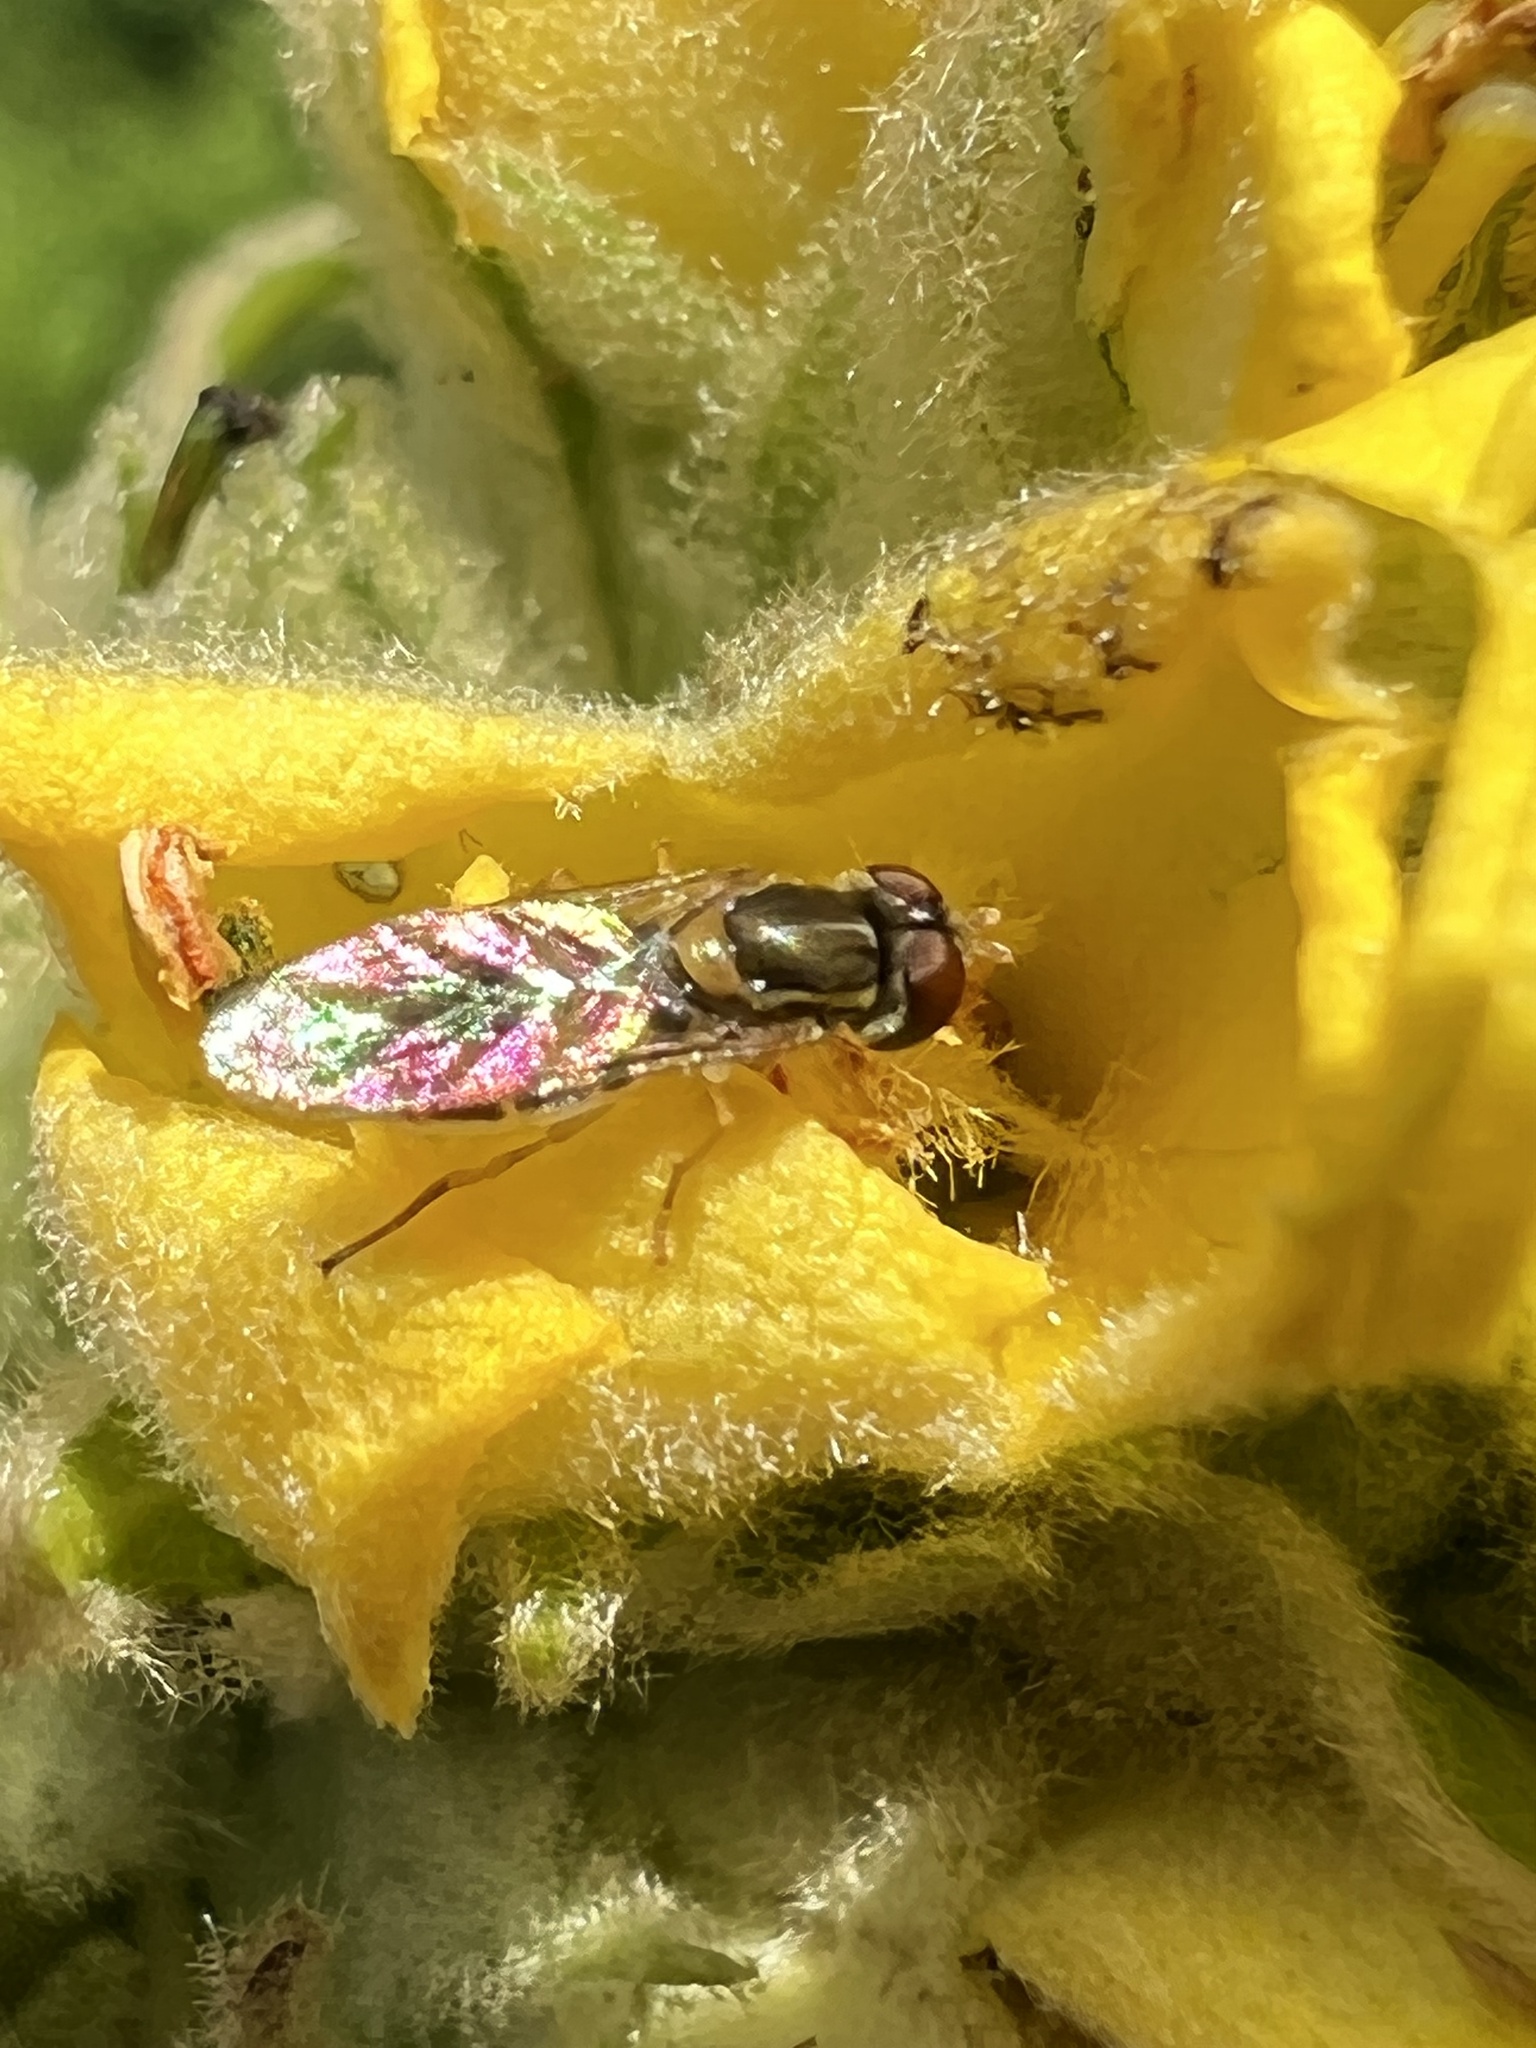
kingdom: Animalia
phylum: Arthropoda
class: Insecta
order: Diptera
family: Syrphidae
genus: Toxomerus
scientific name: Toxomerus marginatus
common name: Syrphid fly
